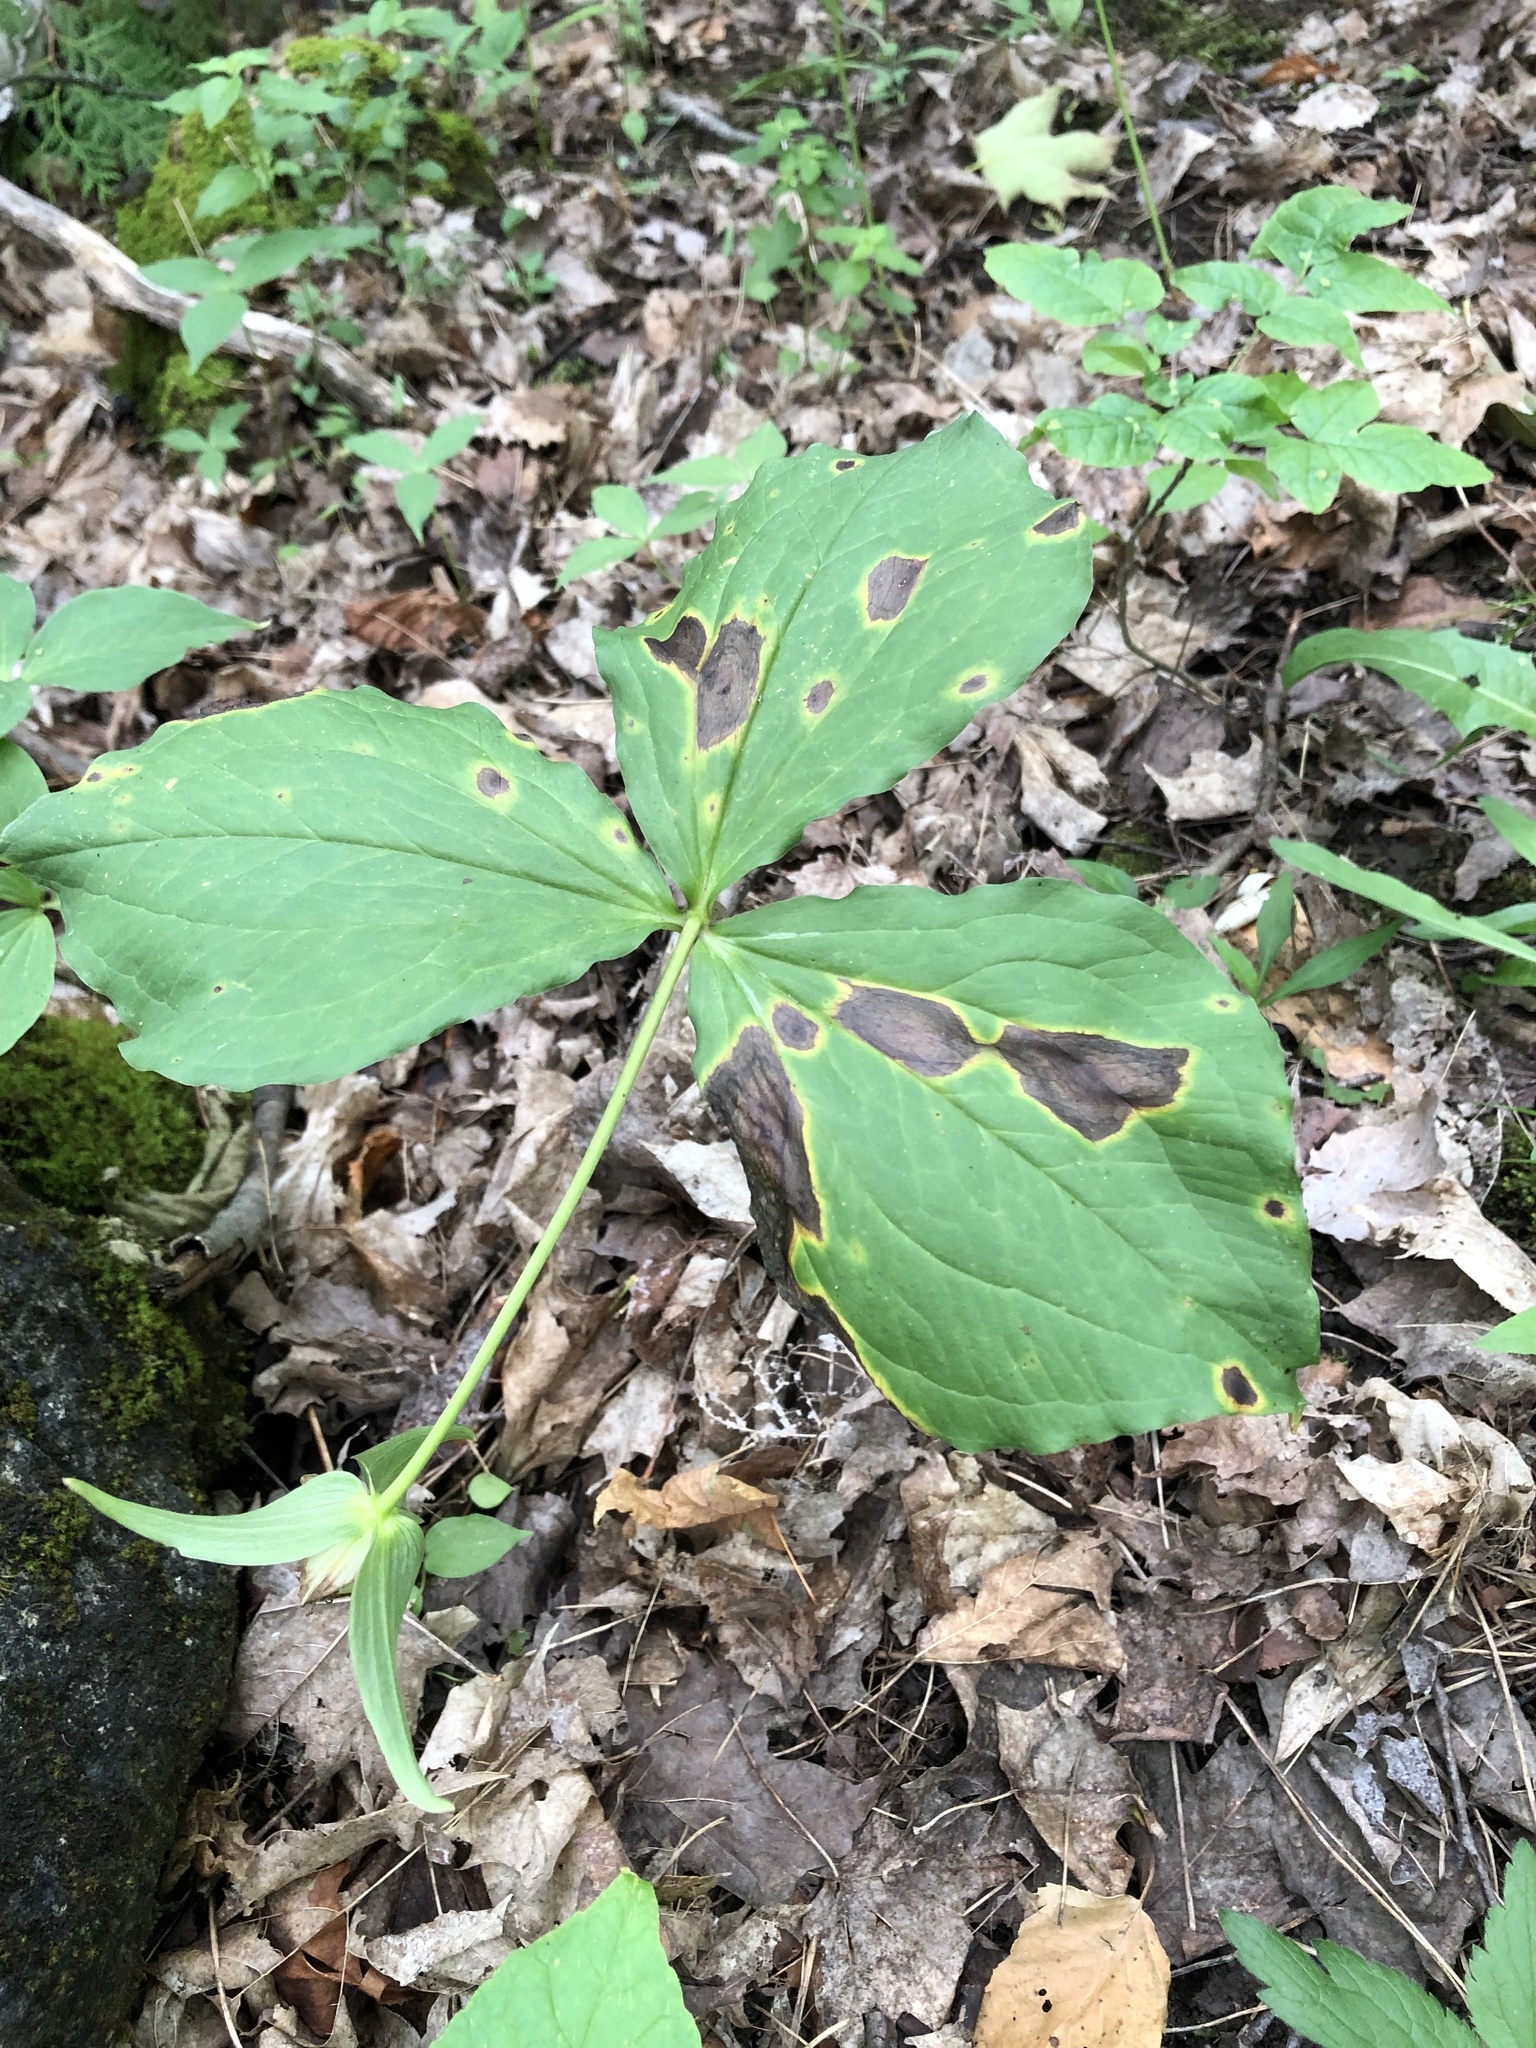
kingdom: Plantae
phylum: Tracheophyta
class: Liliopsida
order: Liliales
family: Melanthiaceae
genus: Trillium
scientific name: Trillium grandiflorum
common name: Great white trillium
